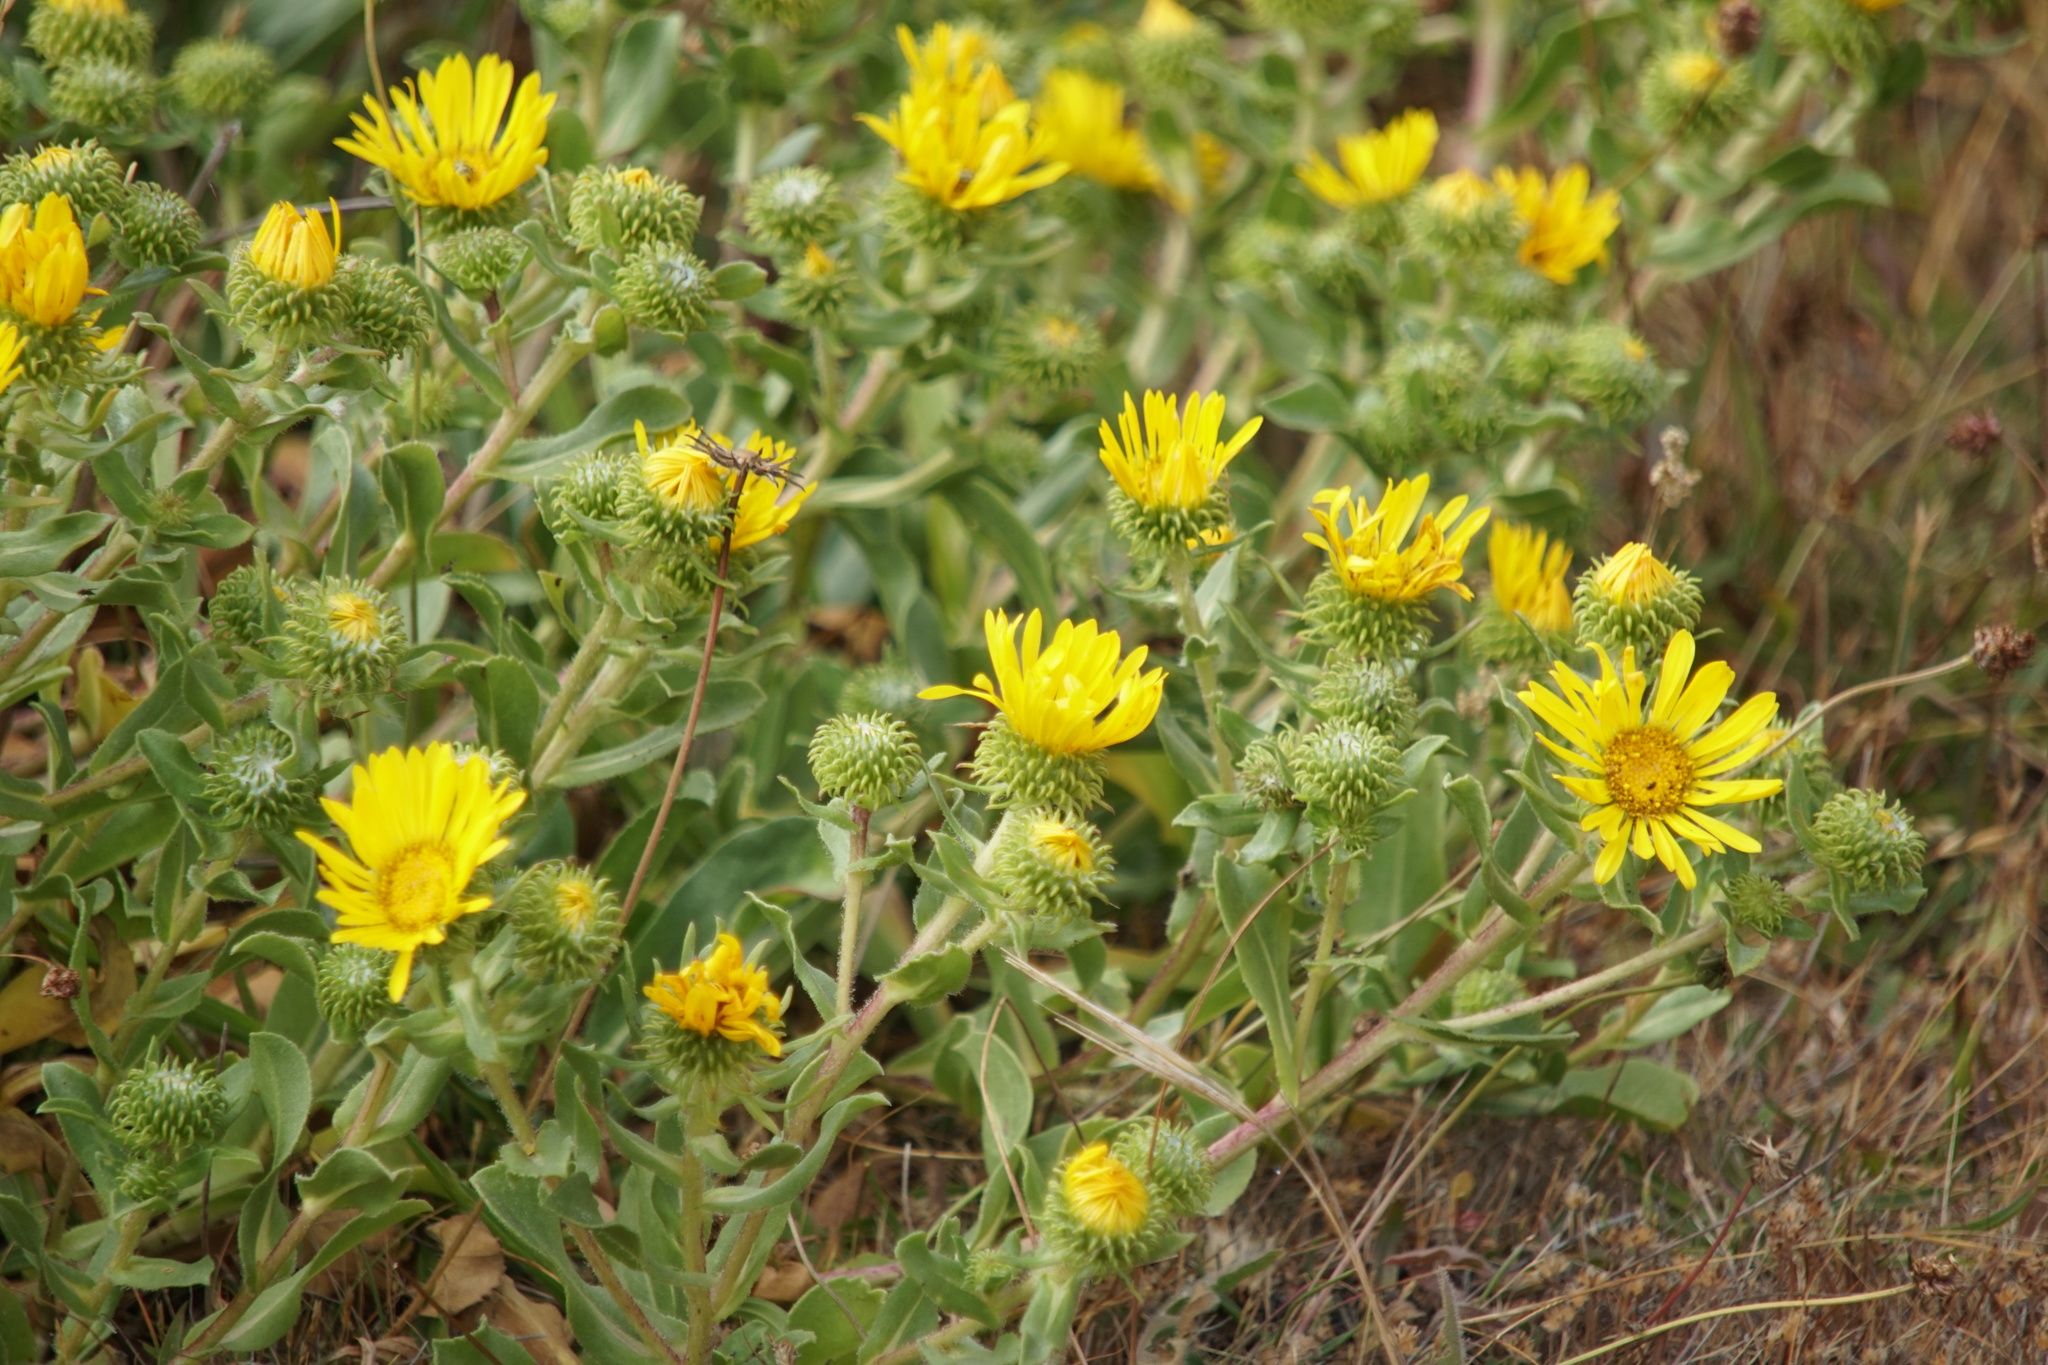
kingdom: Plantae
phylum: Tracheophyta
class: Magnoliopsida
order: Asterales
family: Asteraceae
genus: Grindelia
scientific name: Grindelia hirsutula
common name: Hairy gumweed
